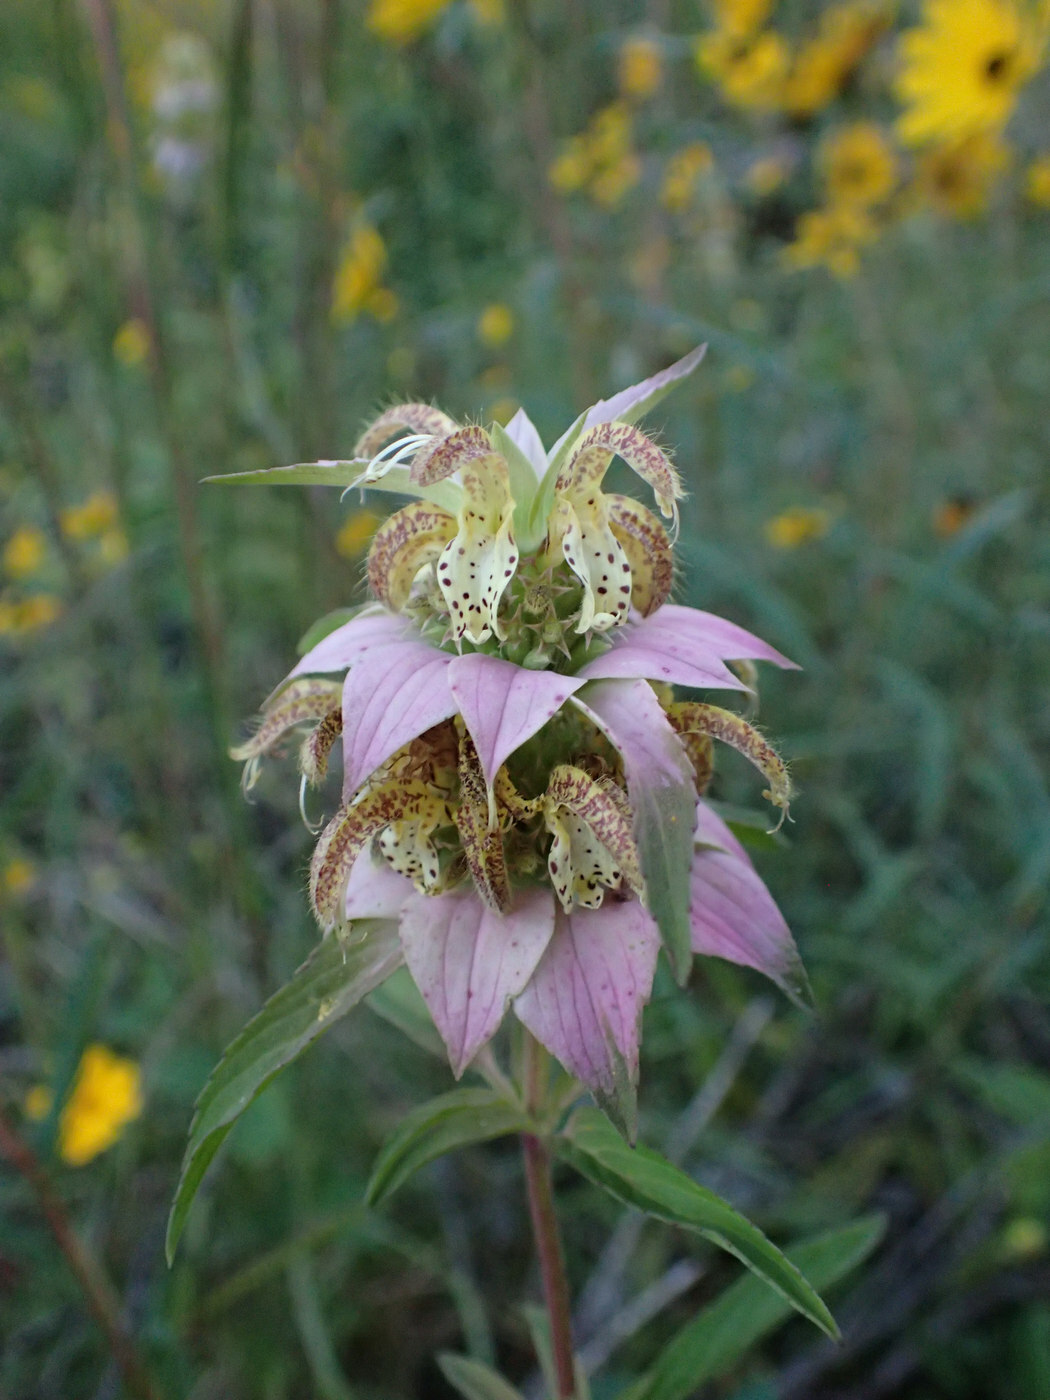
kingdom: Plantae
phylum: Tracheophyta
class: Magnoliopsida
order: Lamiales
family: Lamiaceae
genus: Monarda
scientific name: Monarda punctata
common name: Dotted monarda
